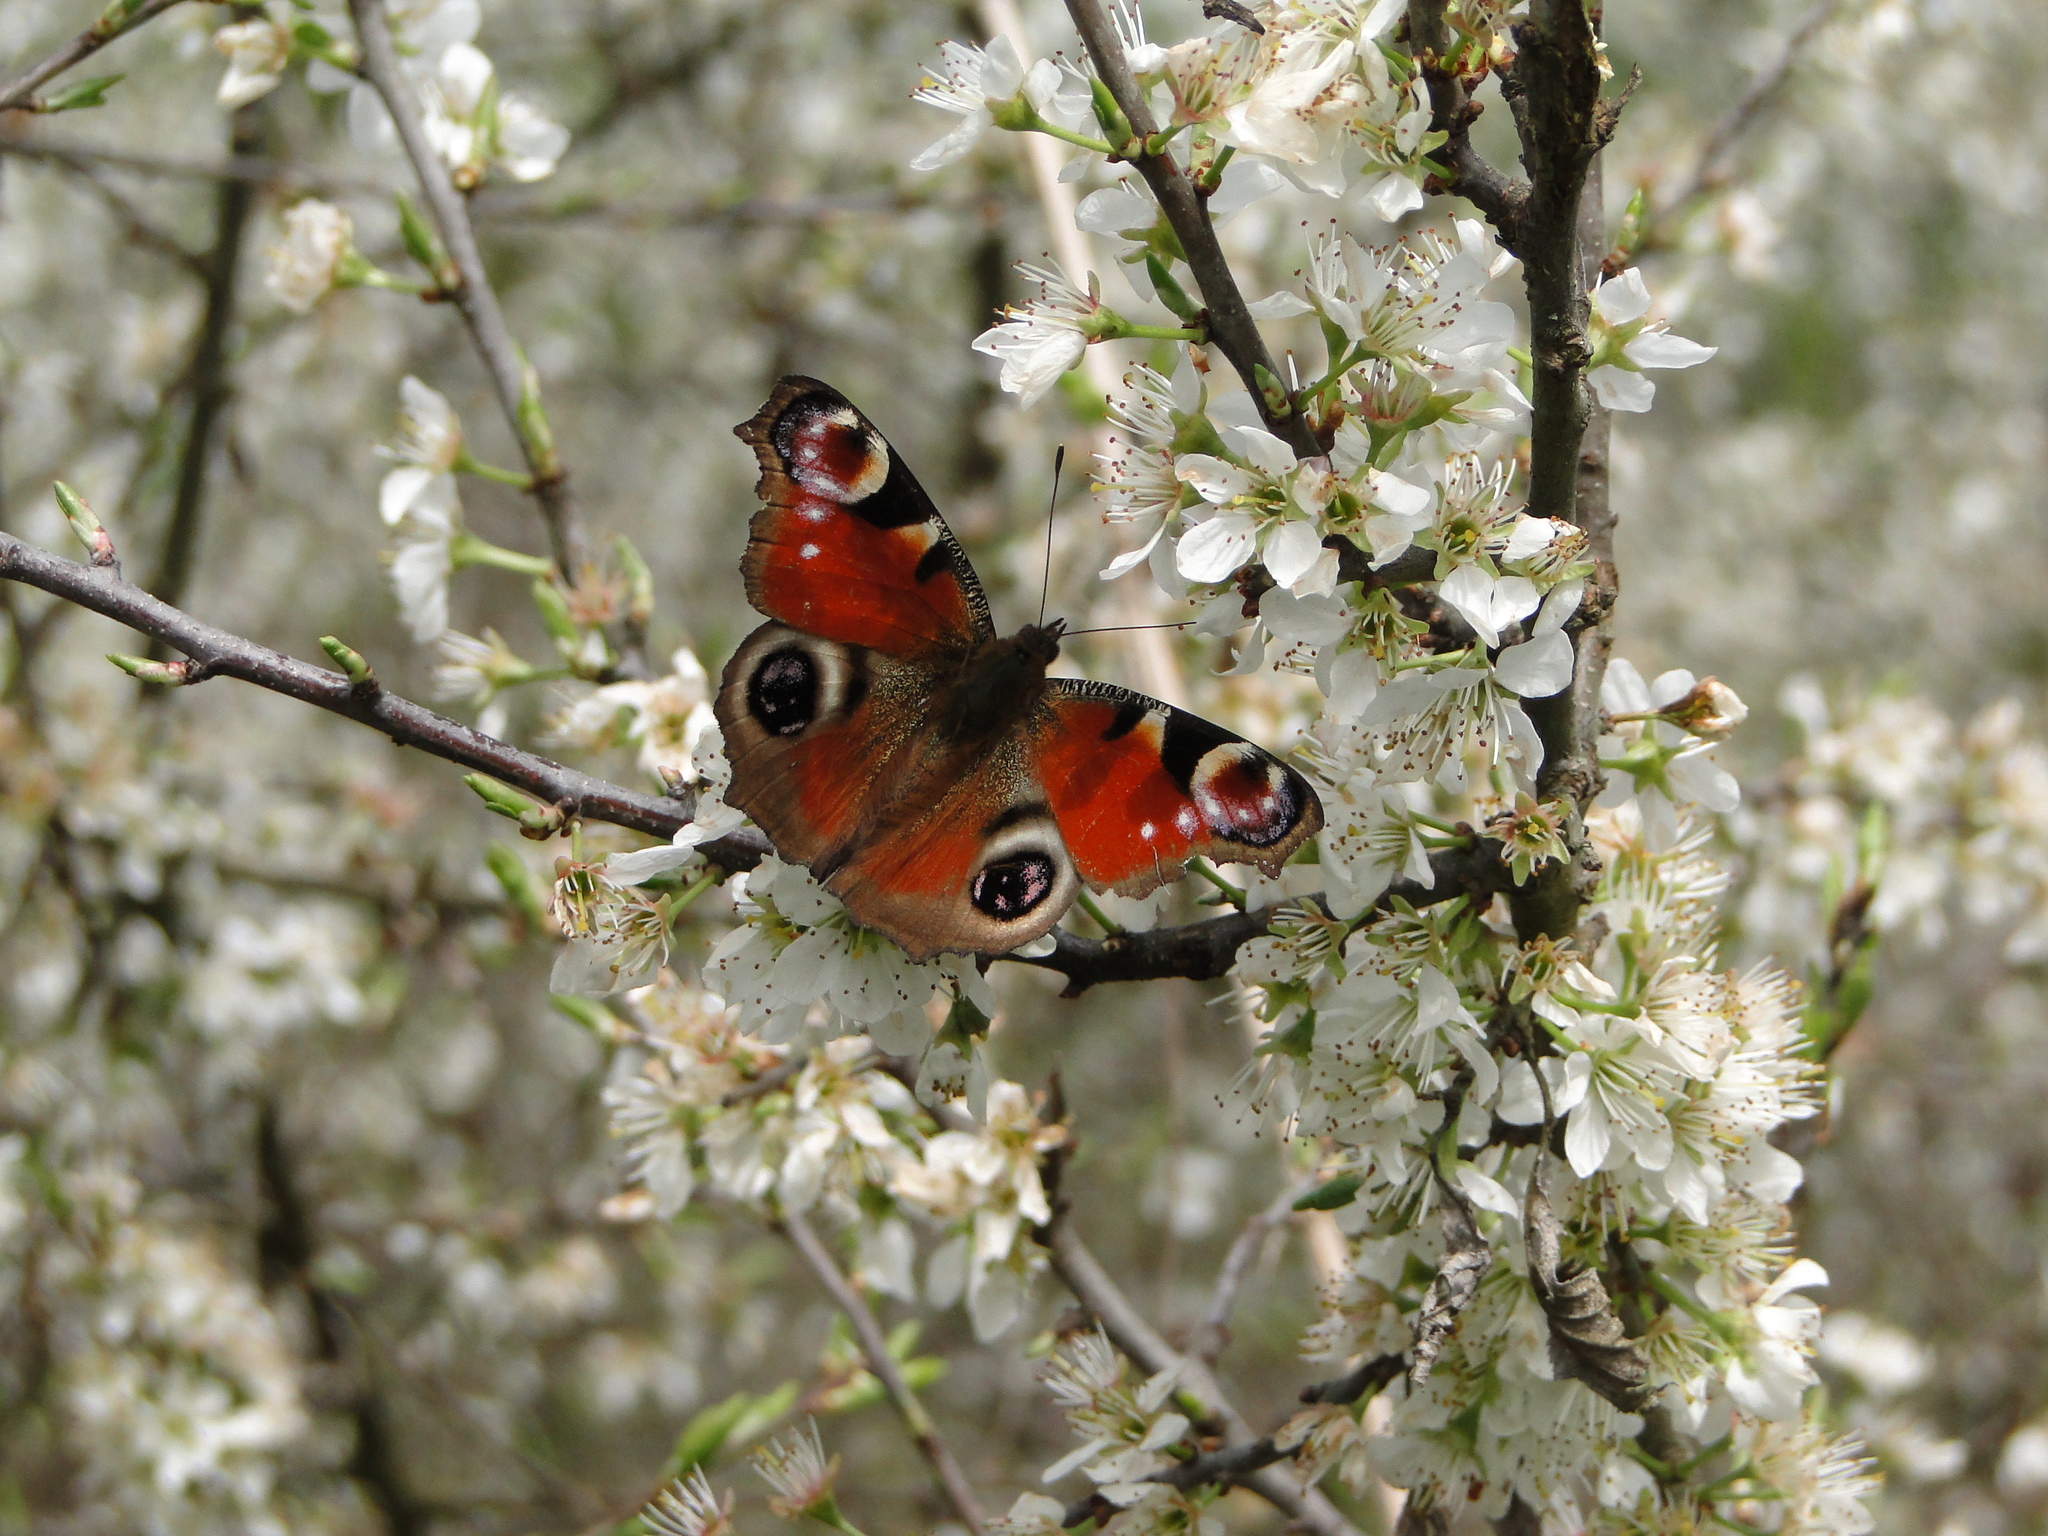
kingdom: Animalia
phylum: Arthropoda
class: Insecta
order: Lepidoptera
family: Nymphalidae
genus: Aglais
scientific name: Aglais io
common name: Peacock
